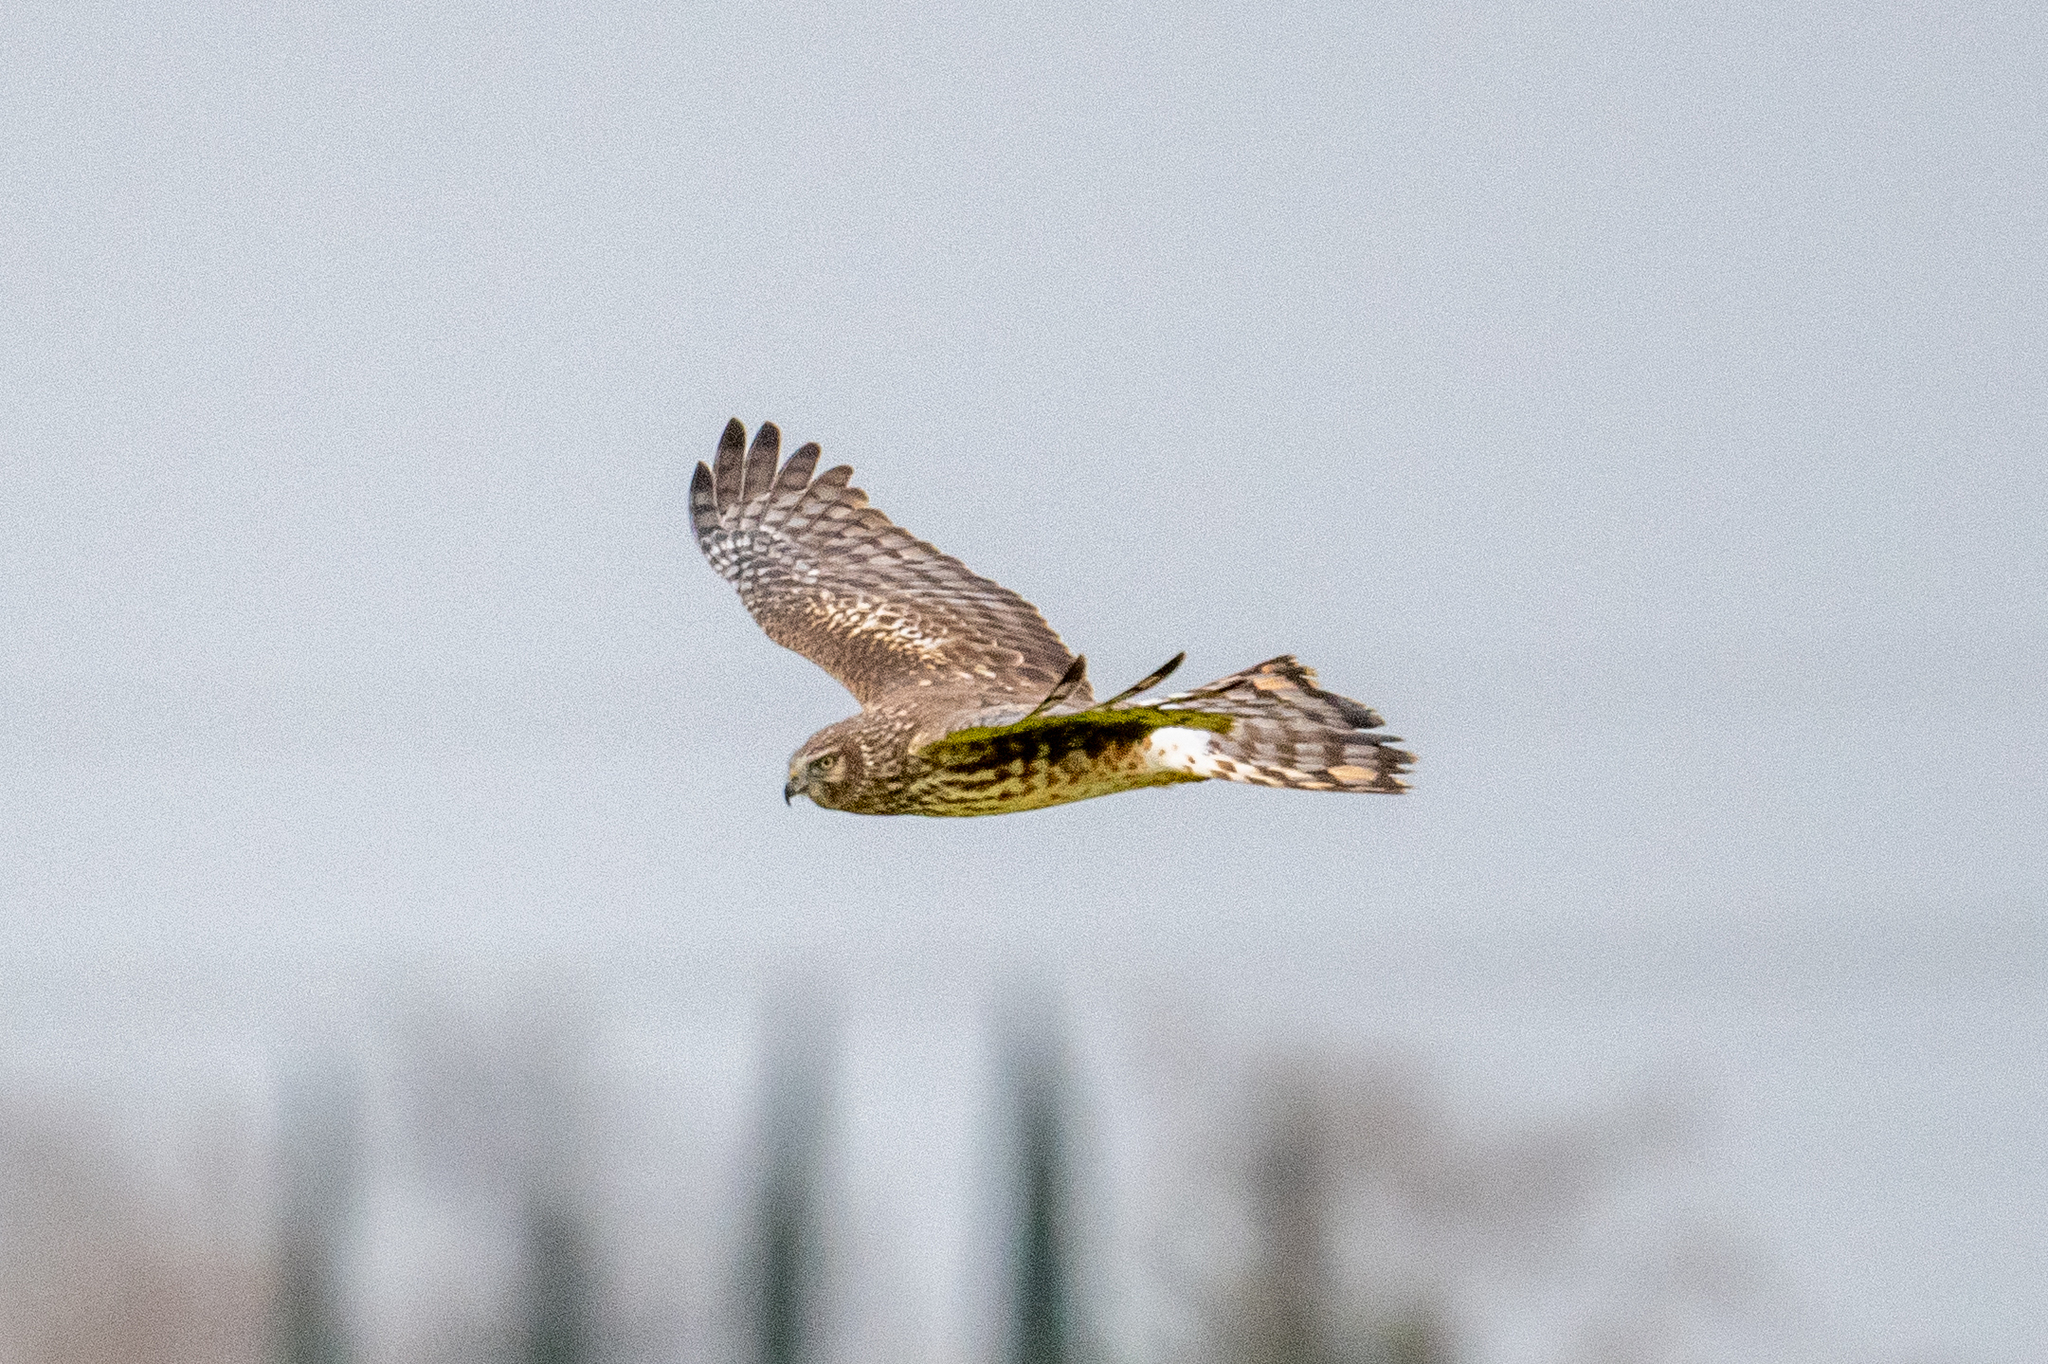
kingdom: Animalia
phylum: Chordata
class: Aves
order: Accipitriformes
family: Accipitridae
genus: Circus
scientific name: Circus cyaneus
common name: Hen harrier
